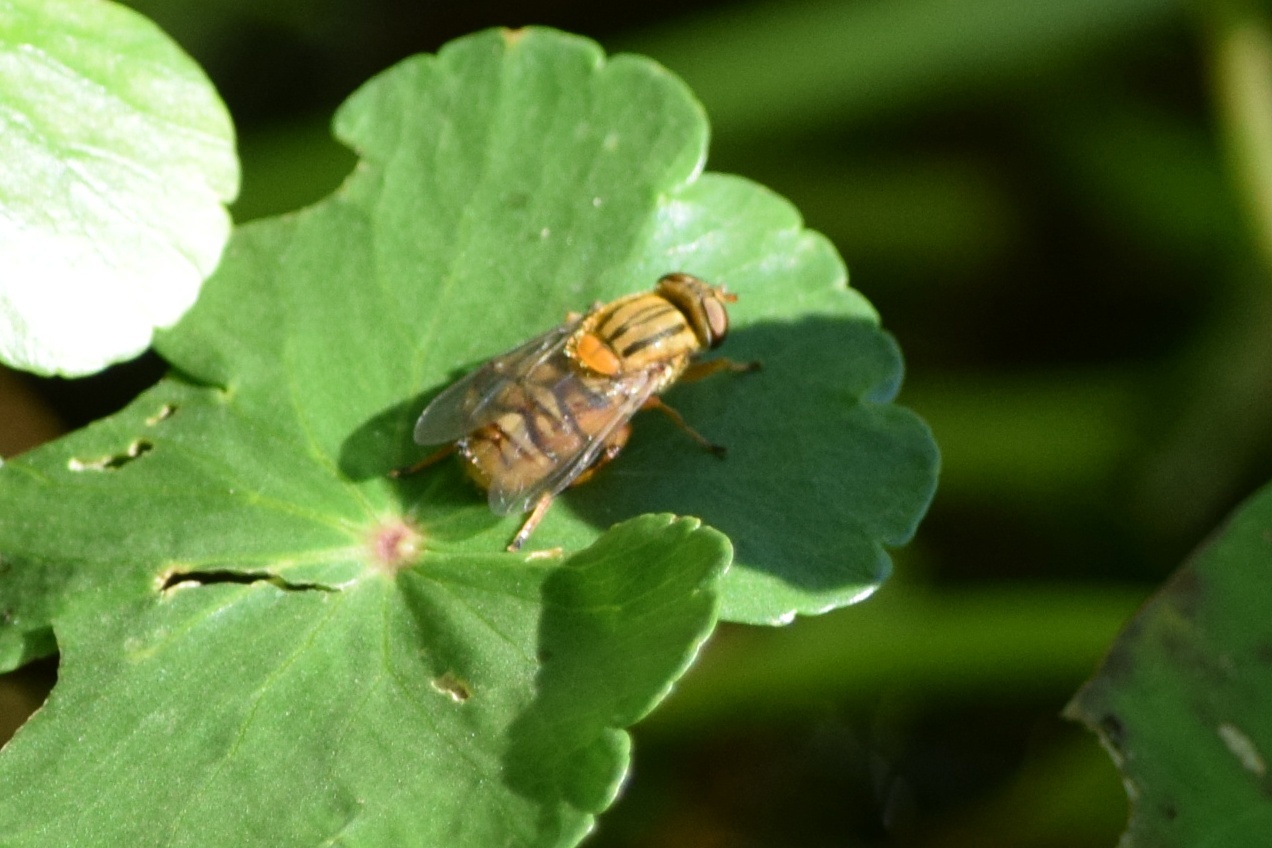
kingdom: Animalia
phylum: Arthropoda
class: Insecta
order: Diptera
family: Syrphidae
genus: Parhelophilus
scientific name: Parhelophilus divisus
